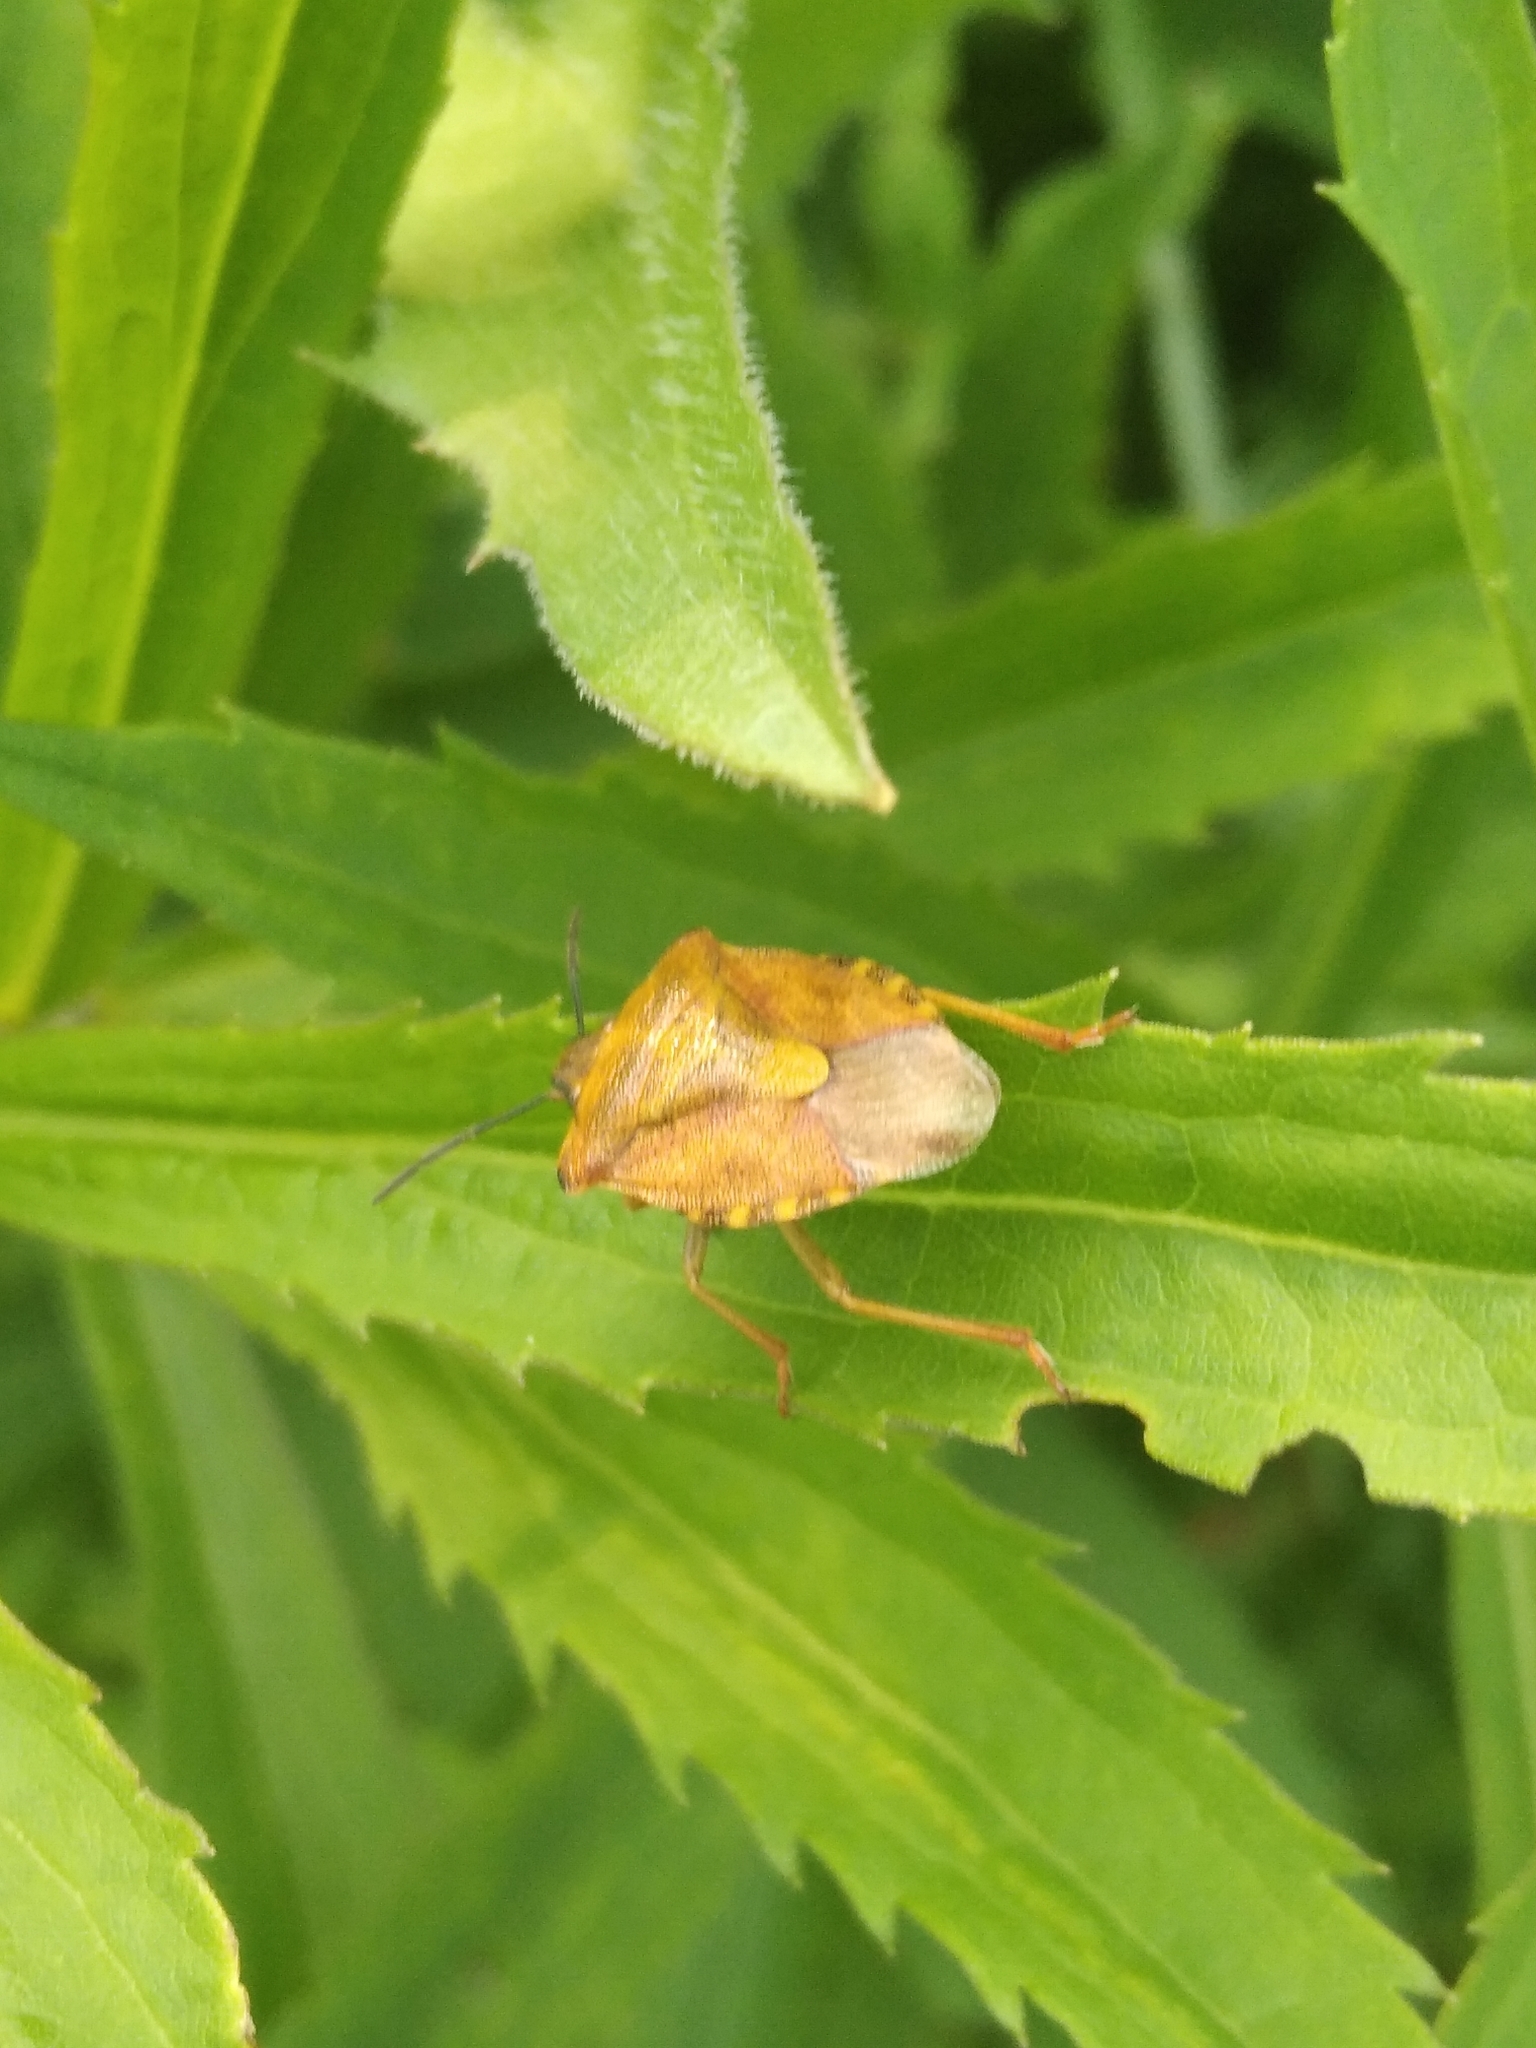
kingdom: Animalia
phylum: Arthropoda
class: Insecta
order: Hemiptera
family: Pentatomidae
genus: Carpocoris
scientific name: Carpocoris purpureipennis
